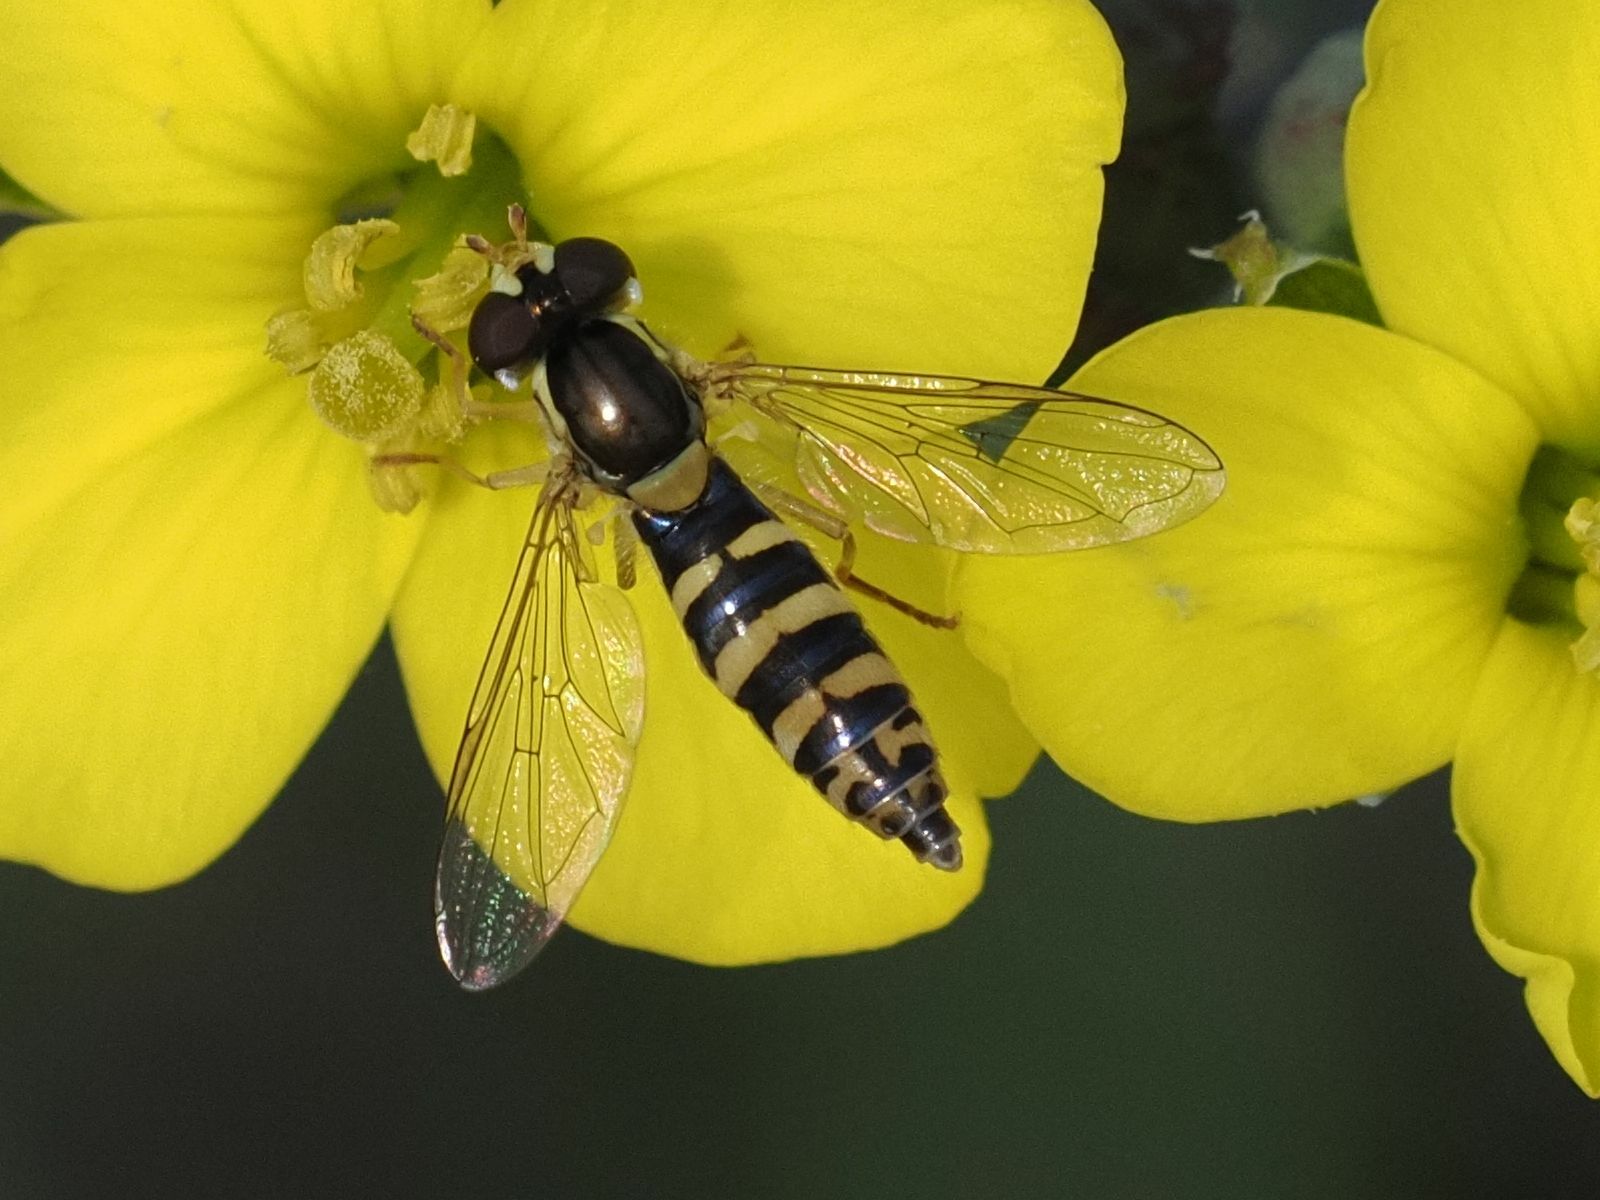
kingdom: Animalia
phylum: Arthropoda
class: Insecta
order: Diptera
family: Syrphidae
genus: Sphaerophoria
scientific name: Sphaerophoria
